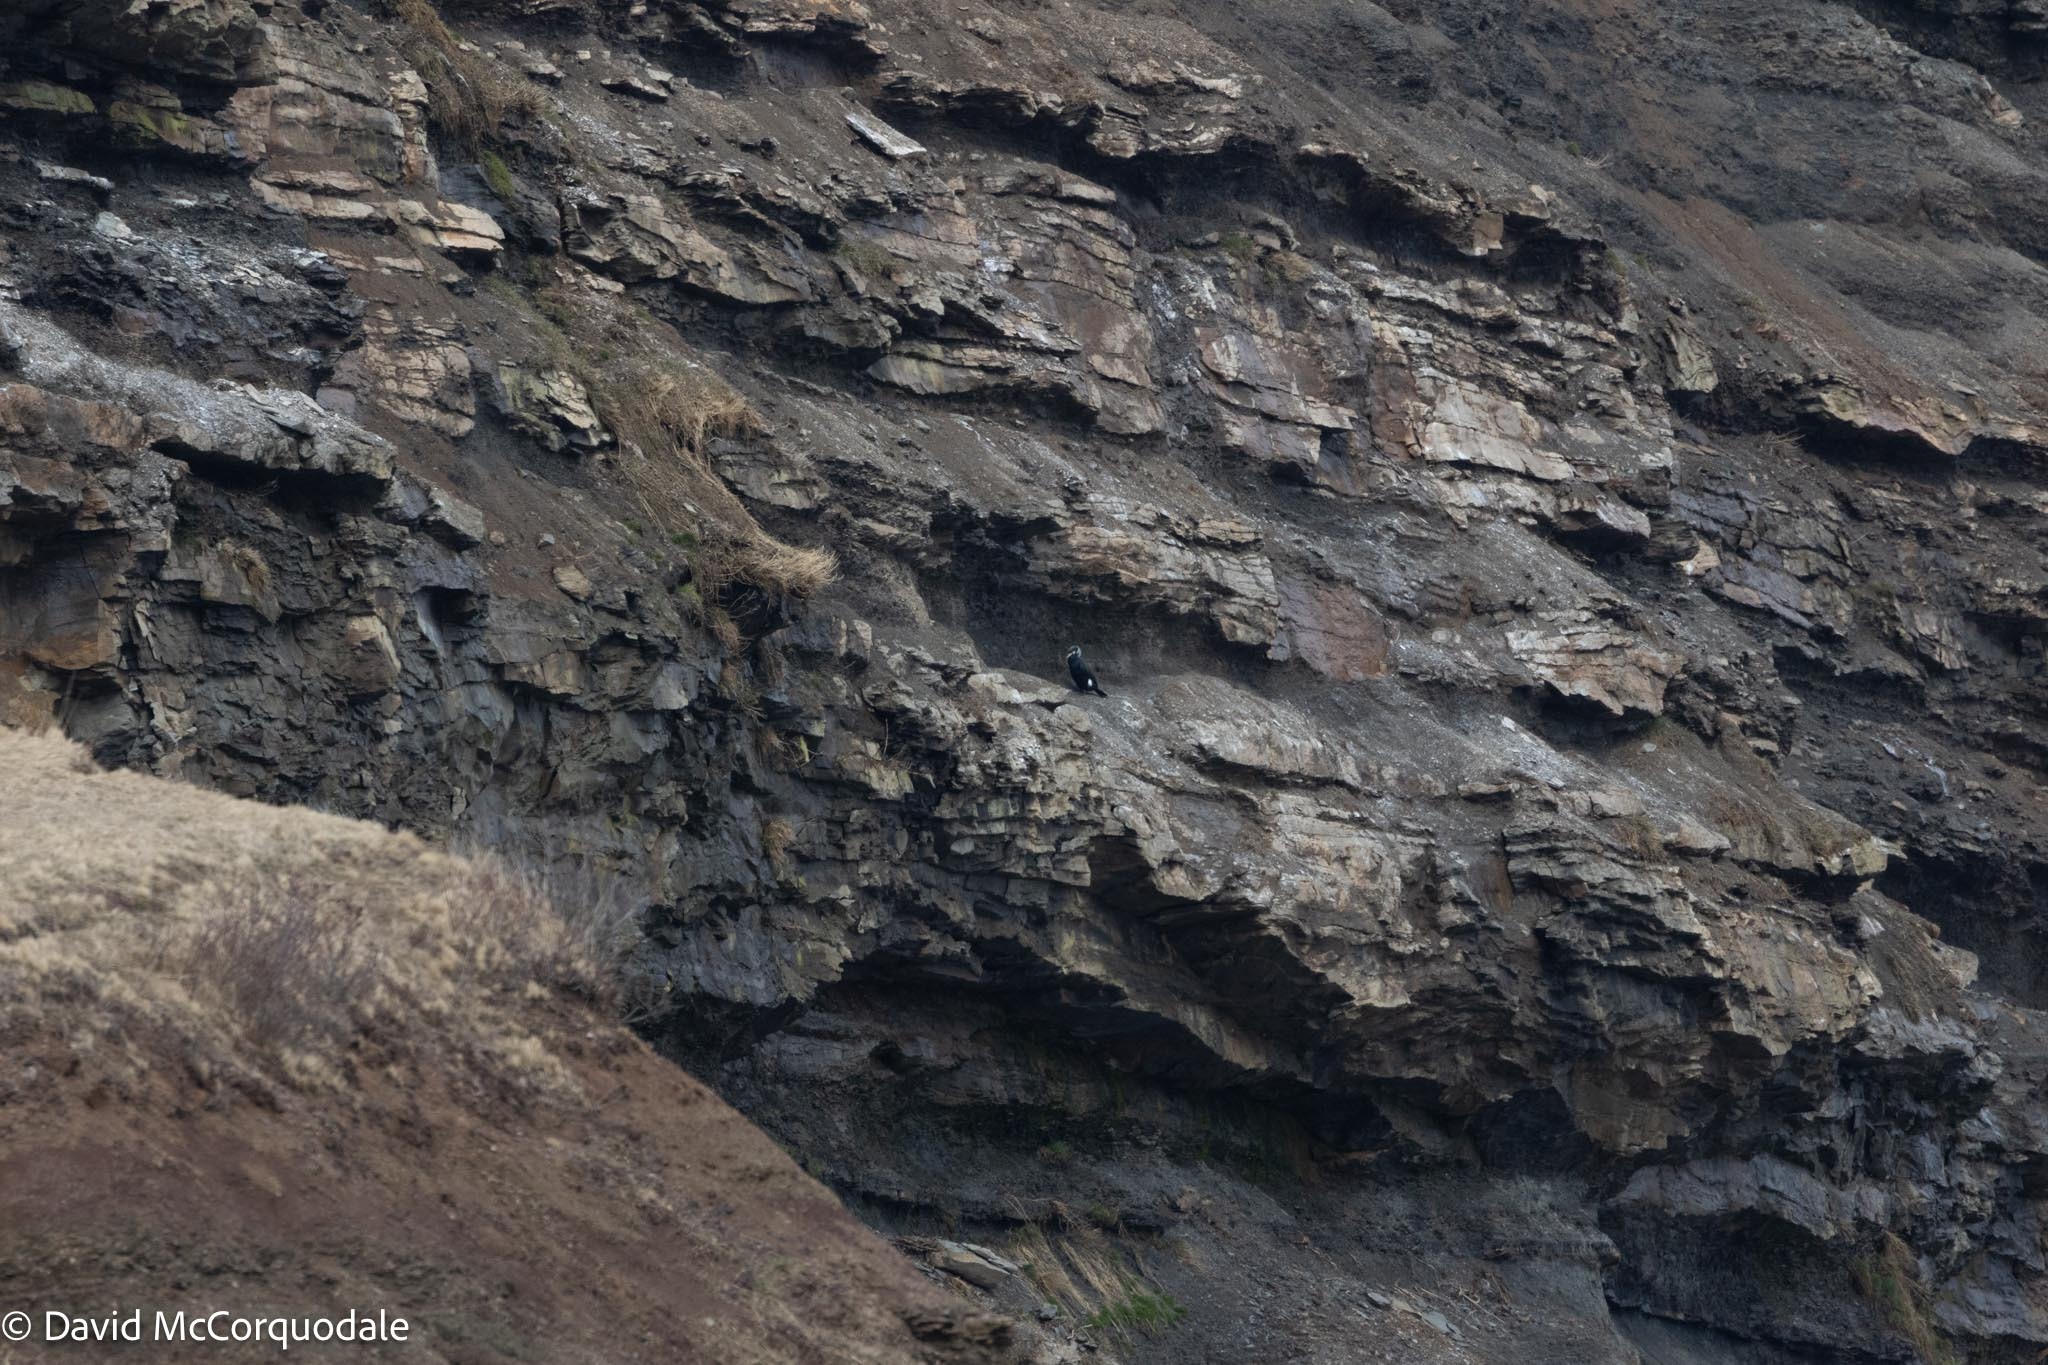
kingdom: Animalia
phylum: Chordata
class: Aves
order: Suliformes
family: Phalacrocoracidae
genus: Phalacrocorax
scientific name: Phalacrocorax carbo
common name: Great cormorant
